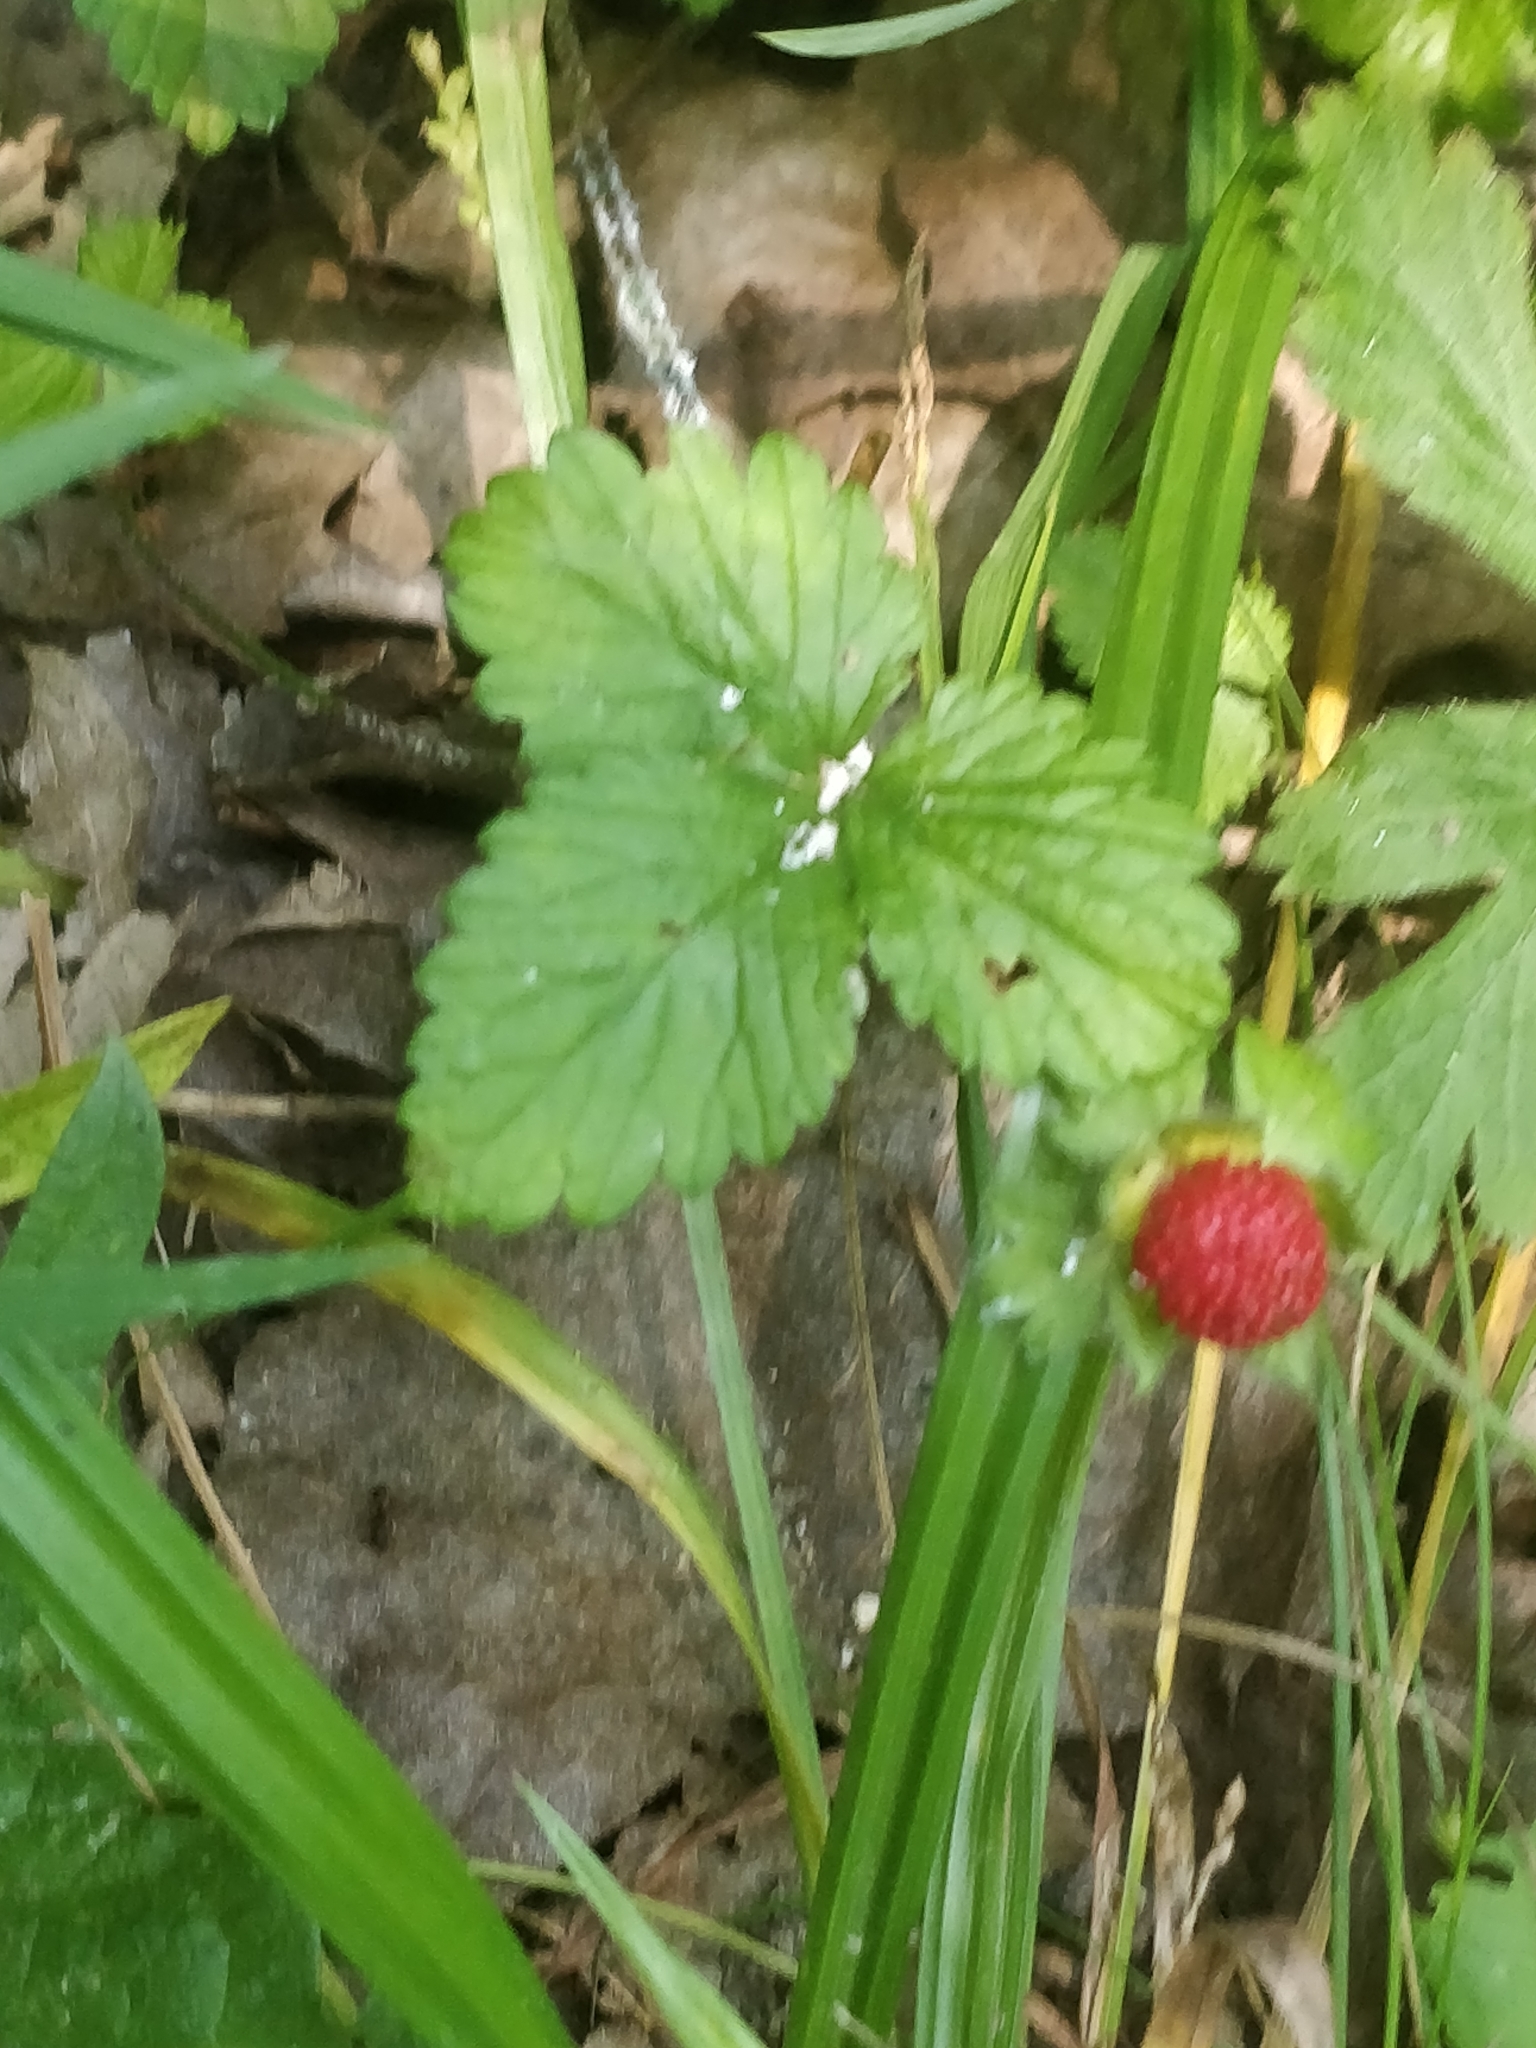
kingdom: Plantae
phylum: Tracheophyta
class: Magnoliopsida
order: Rosales
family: Rosaceae
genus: Potentilla
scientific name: Potentilla indica
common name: Yellow-flowered strawberry
